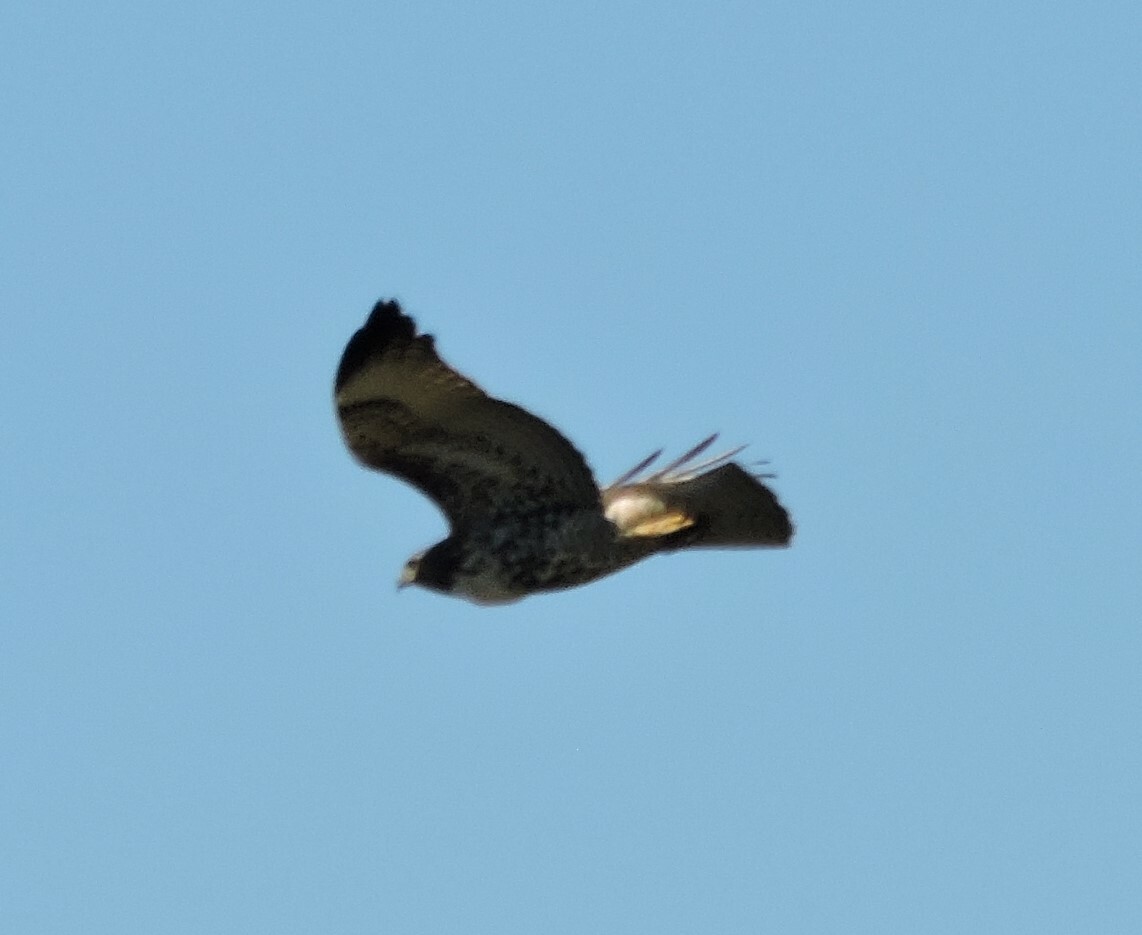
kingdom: Animalia
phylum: Chordata
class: Aves
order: Accipitriformes
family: Accipitridae
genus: Buteo
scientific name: Buteo jamaicensis
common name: Red-tailed hawk
